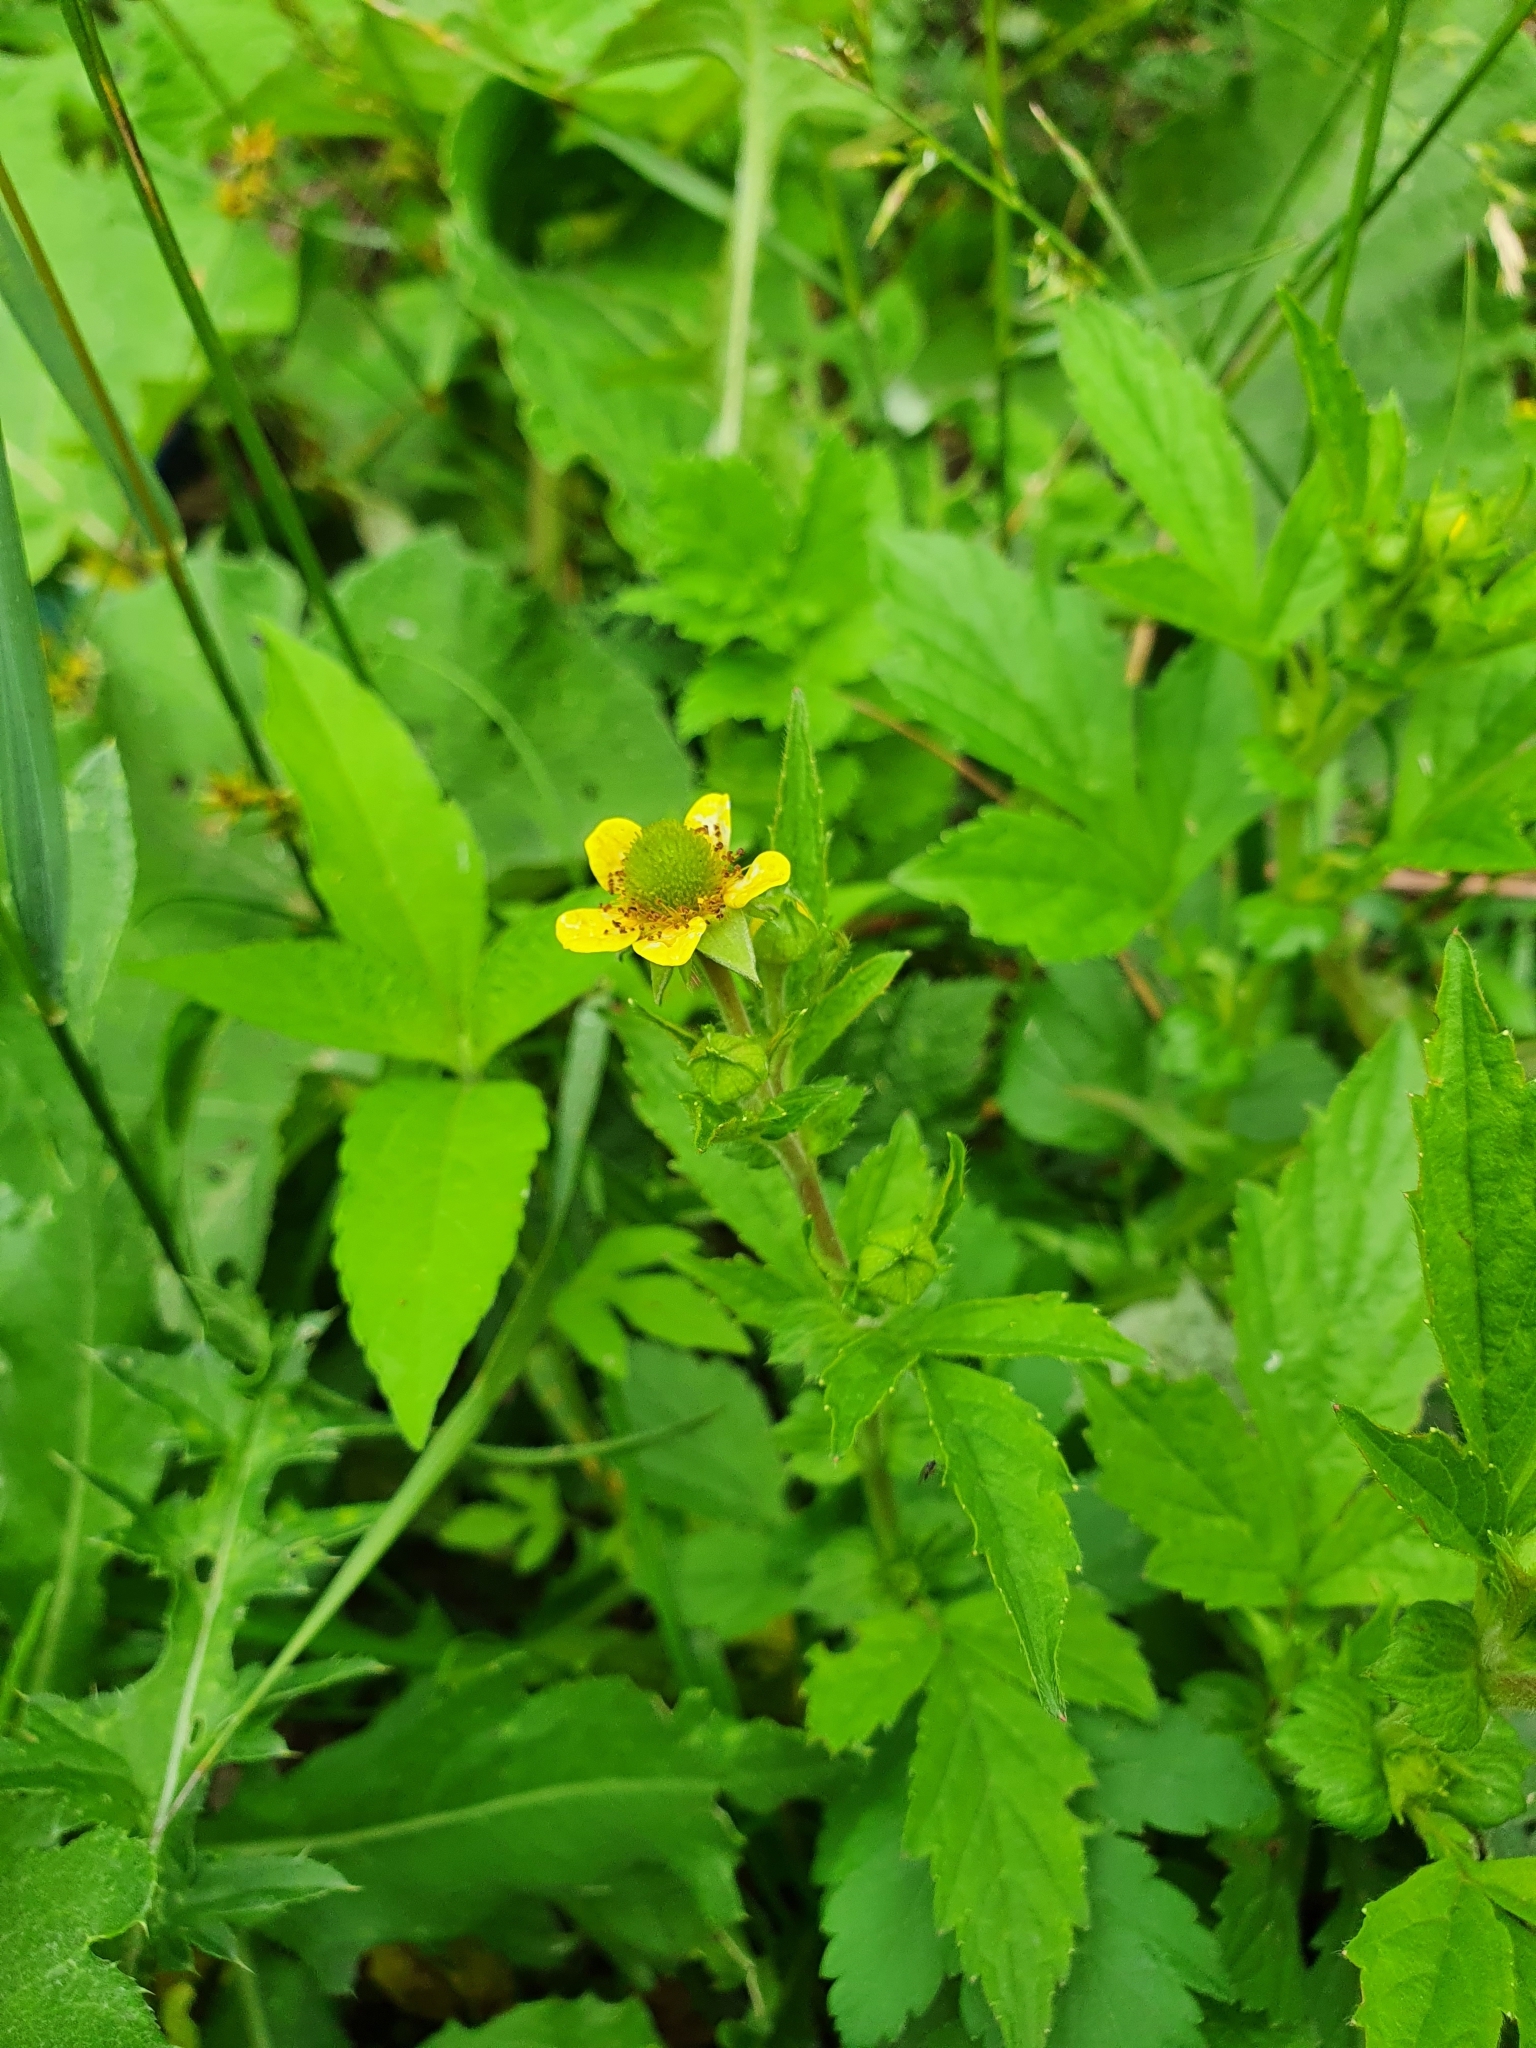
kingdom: Plantae
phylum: Tracheophyta
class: Magnoliopsida
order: Rosales
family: Rosaceae
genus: Geum
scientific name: Geum aleppicum
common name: Yellow avens
